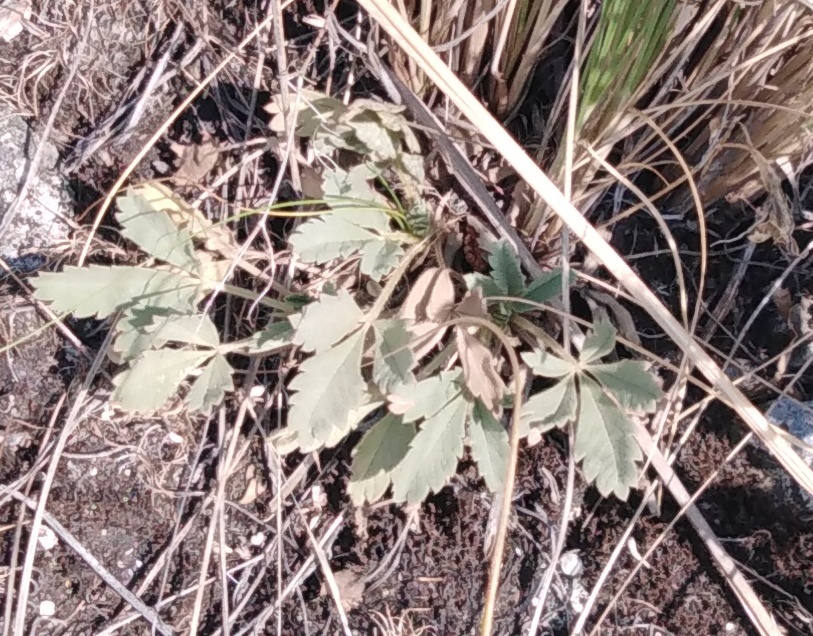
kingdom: Plantae
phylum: Tracheophyta
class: Magnoliopsida
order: Rosales
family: Rosaceae
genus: Potentilla
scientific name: Potentilla incana
